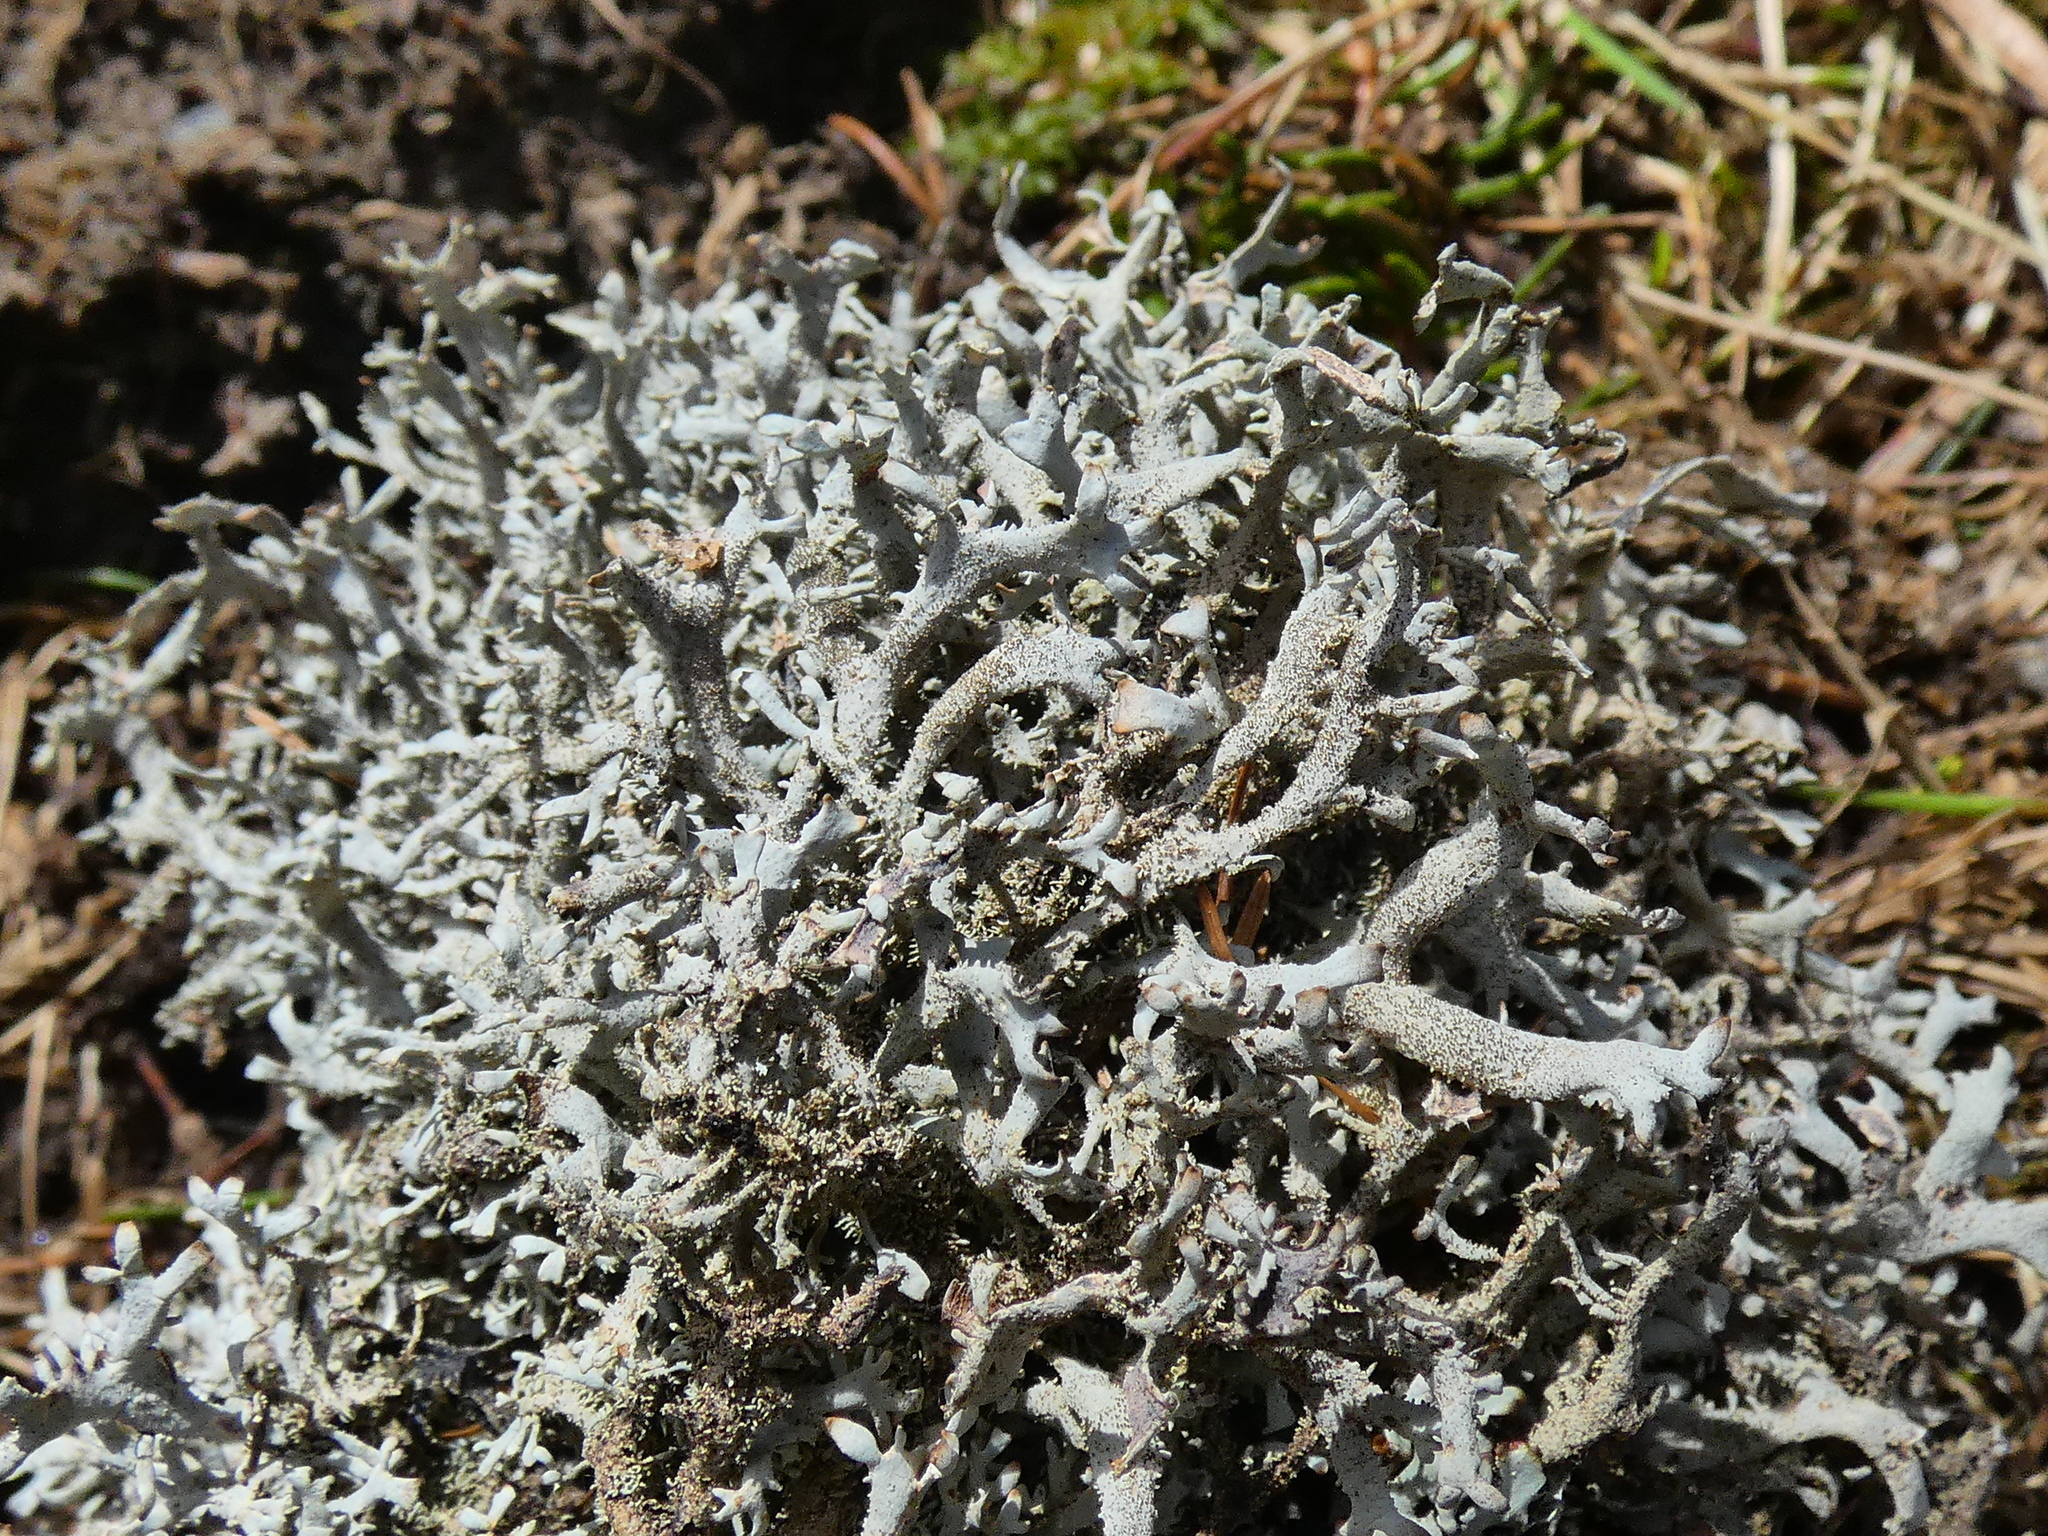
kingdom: Fungi
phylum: Ascomycota
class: Lecanoromycetes
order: Lecanorales
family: Parmeliaceae
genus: Pseudevernia
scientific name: Pseudevernia furfuracea
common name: Tree moss
